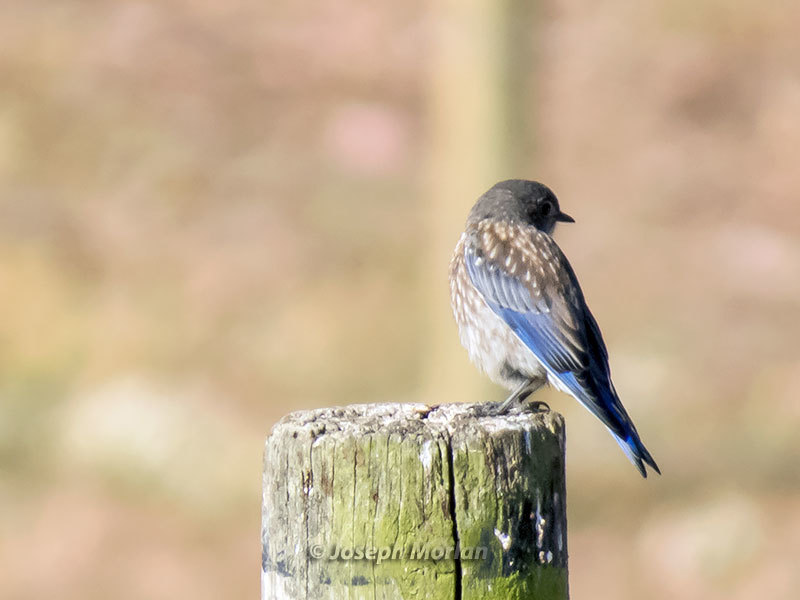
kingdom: Animalia
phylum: Chordata
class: Aves
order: Passeriformes
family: Turdidae
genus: Sialia
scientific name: Sialia mexicana
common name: Western bluebird
